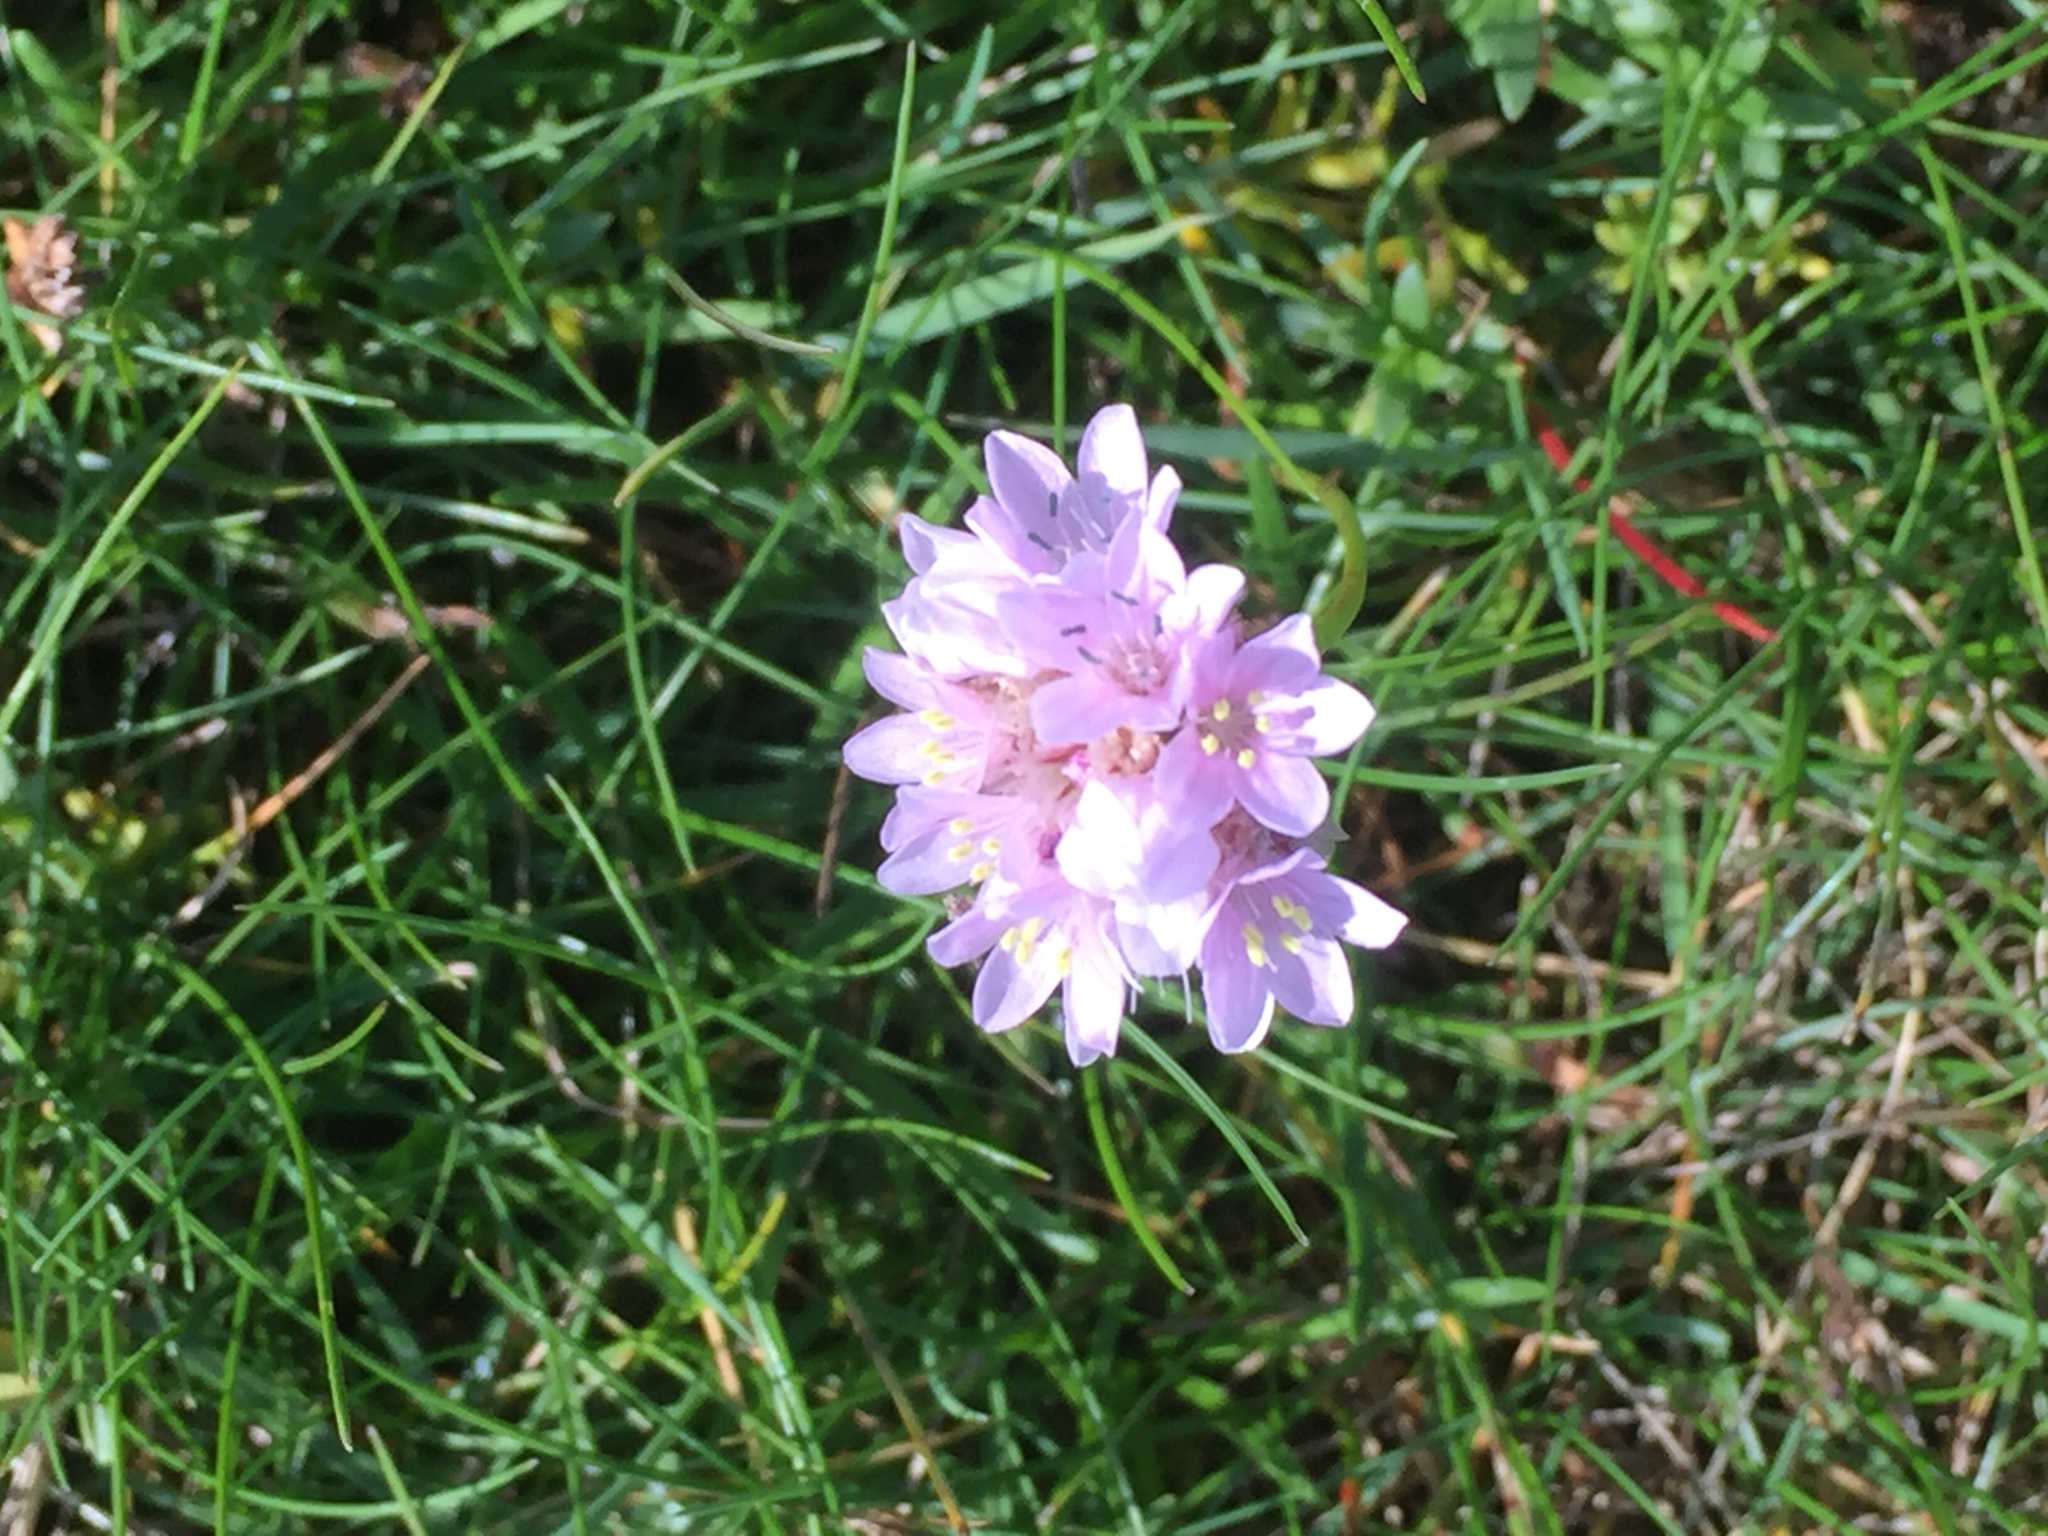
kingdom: Plantae
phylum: Tracheophyta
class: Magnoliopsida
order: Caryophyllales
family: Plumbaginaceae
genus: Armeria
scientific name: Armeria maritima
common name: Thrift
